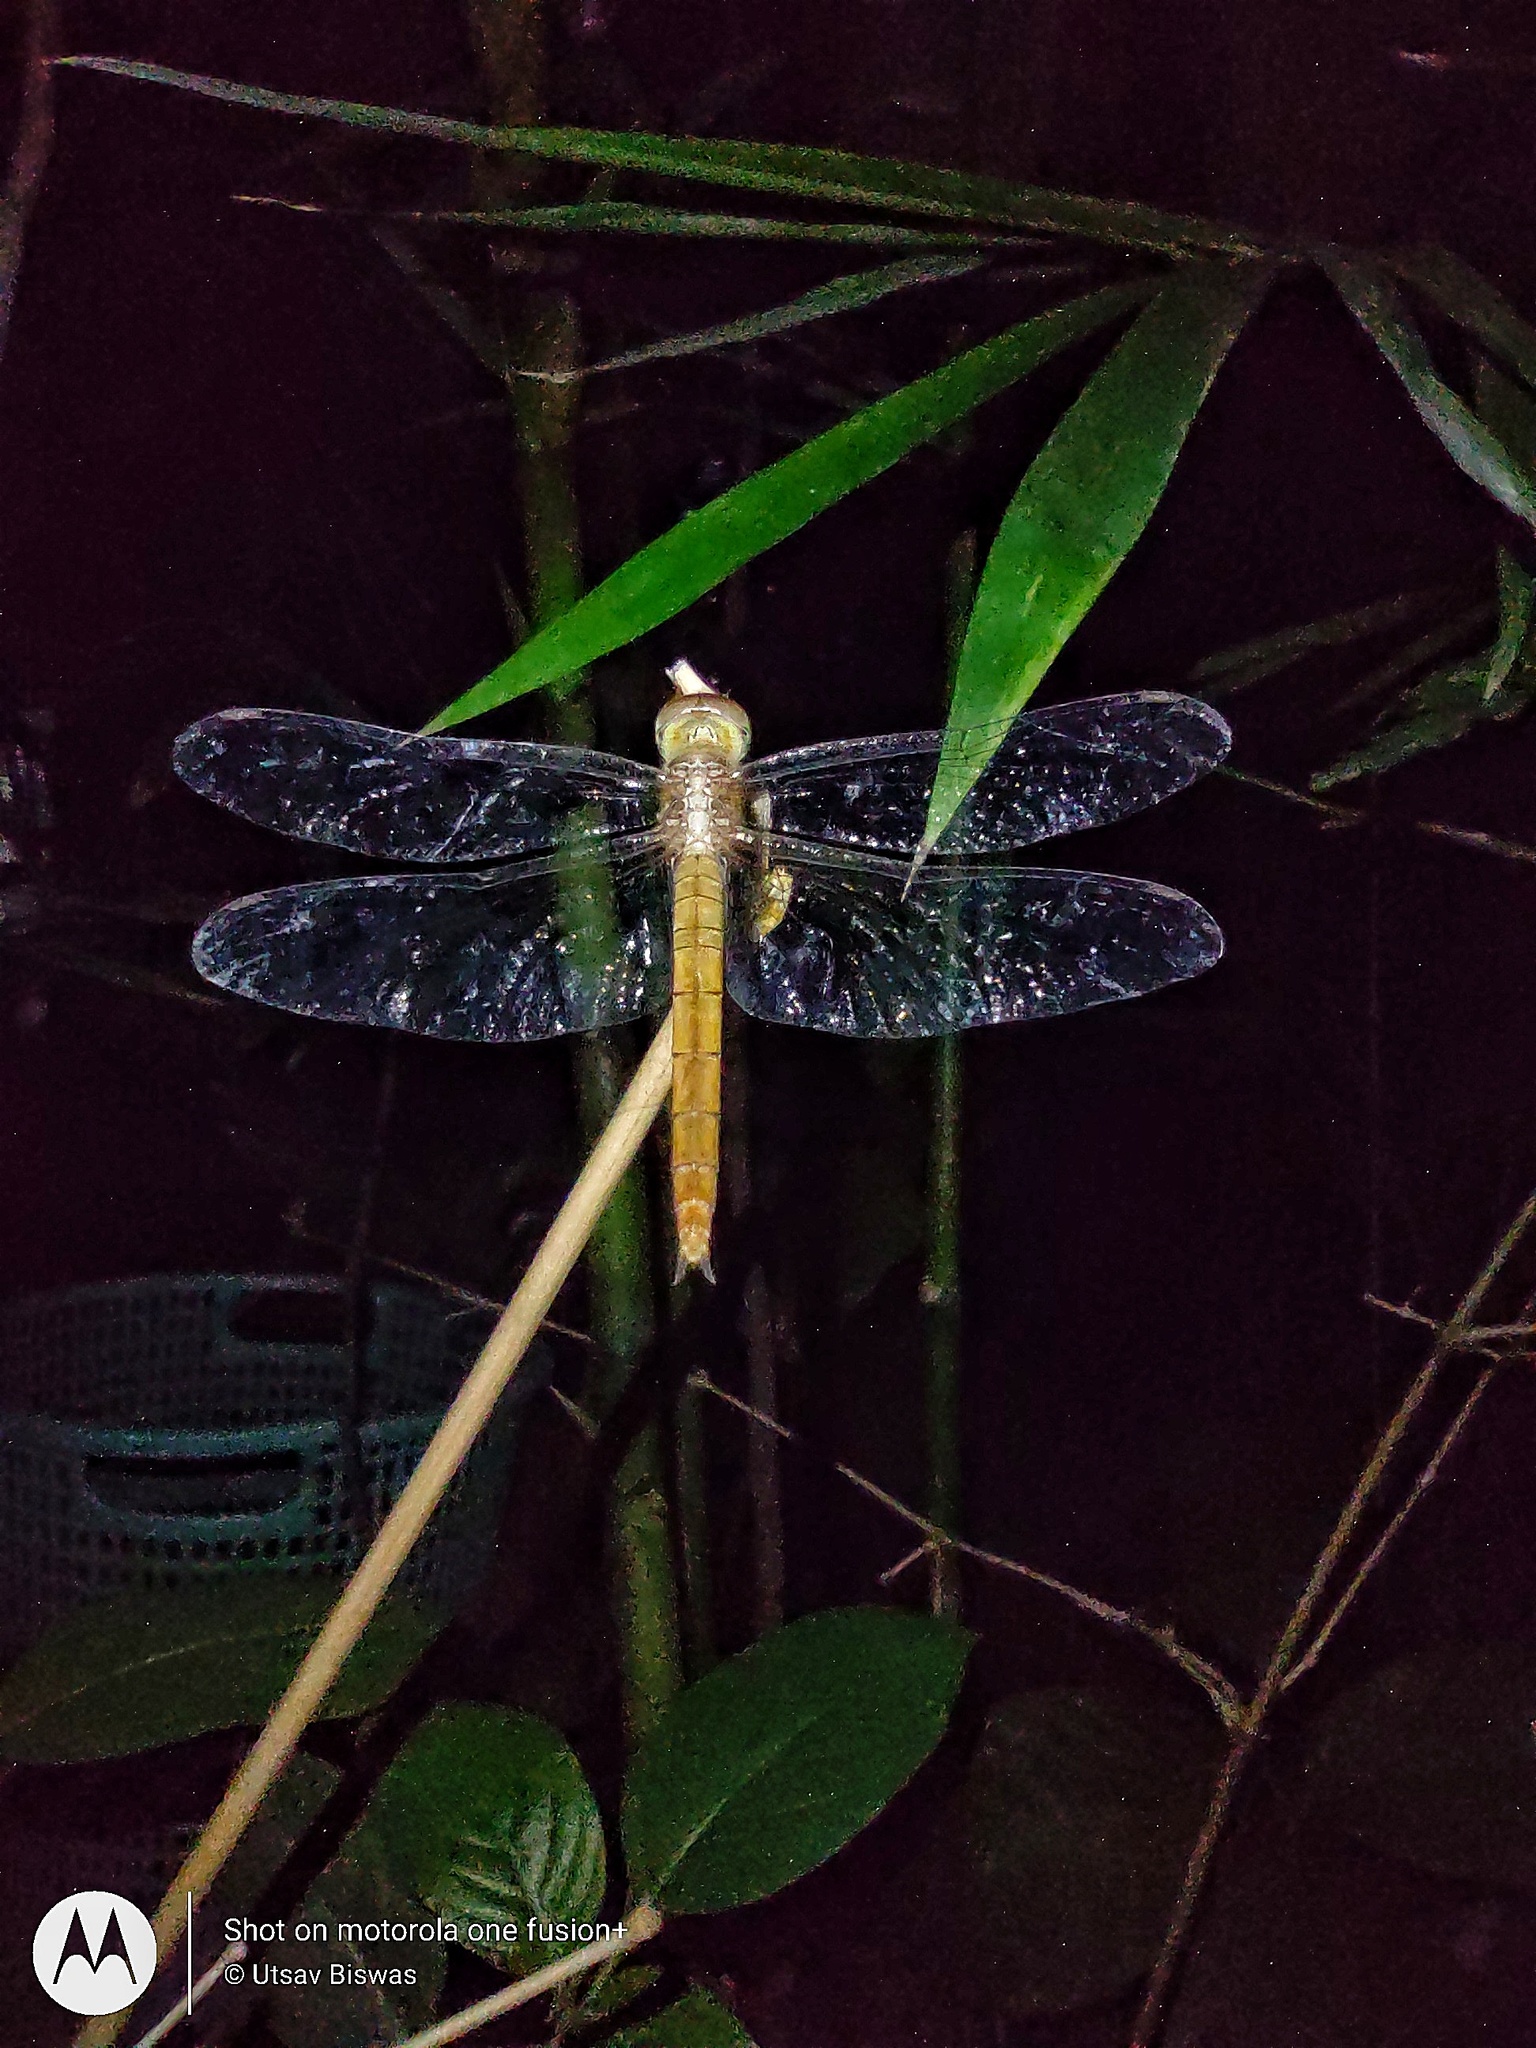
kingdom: Animalia
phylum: Arthropoda
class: Insecta
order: Odonata
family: Libellulidae
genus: Tholymis
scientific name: Tholymis tillarga
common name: Coral-tailed cloud wing
